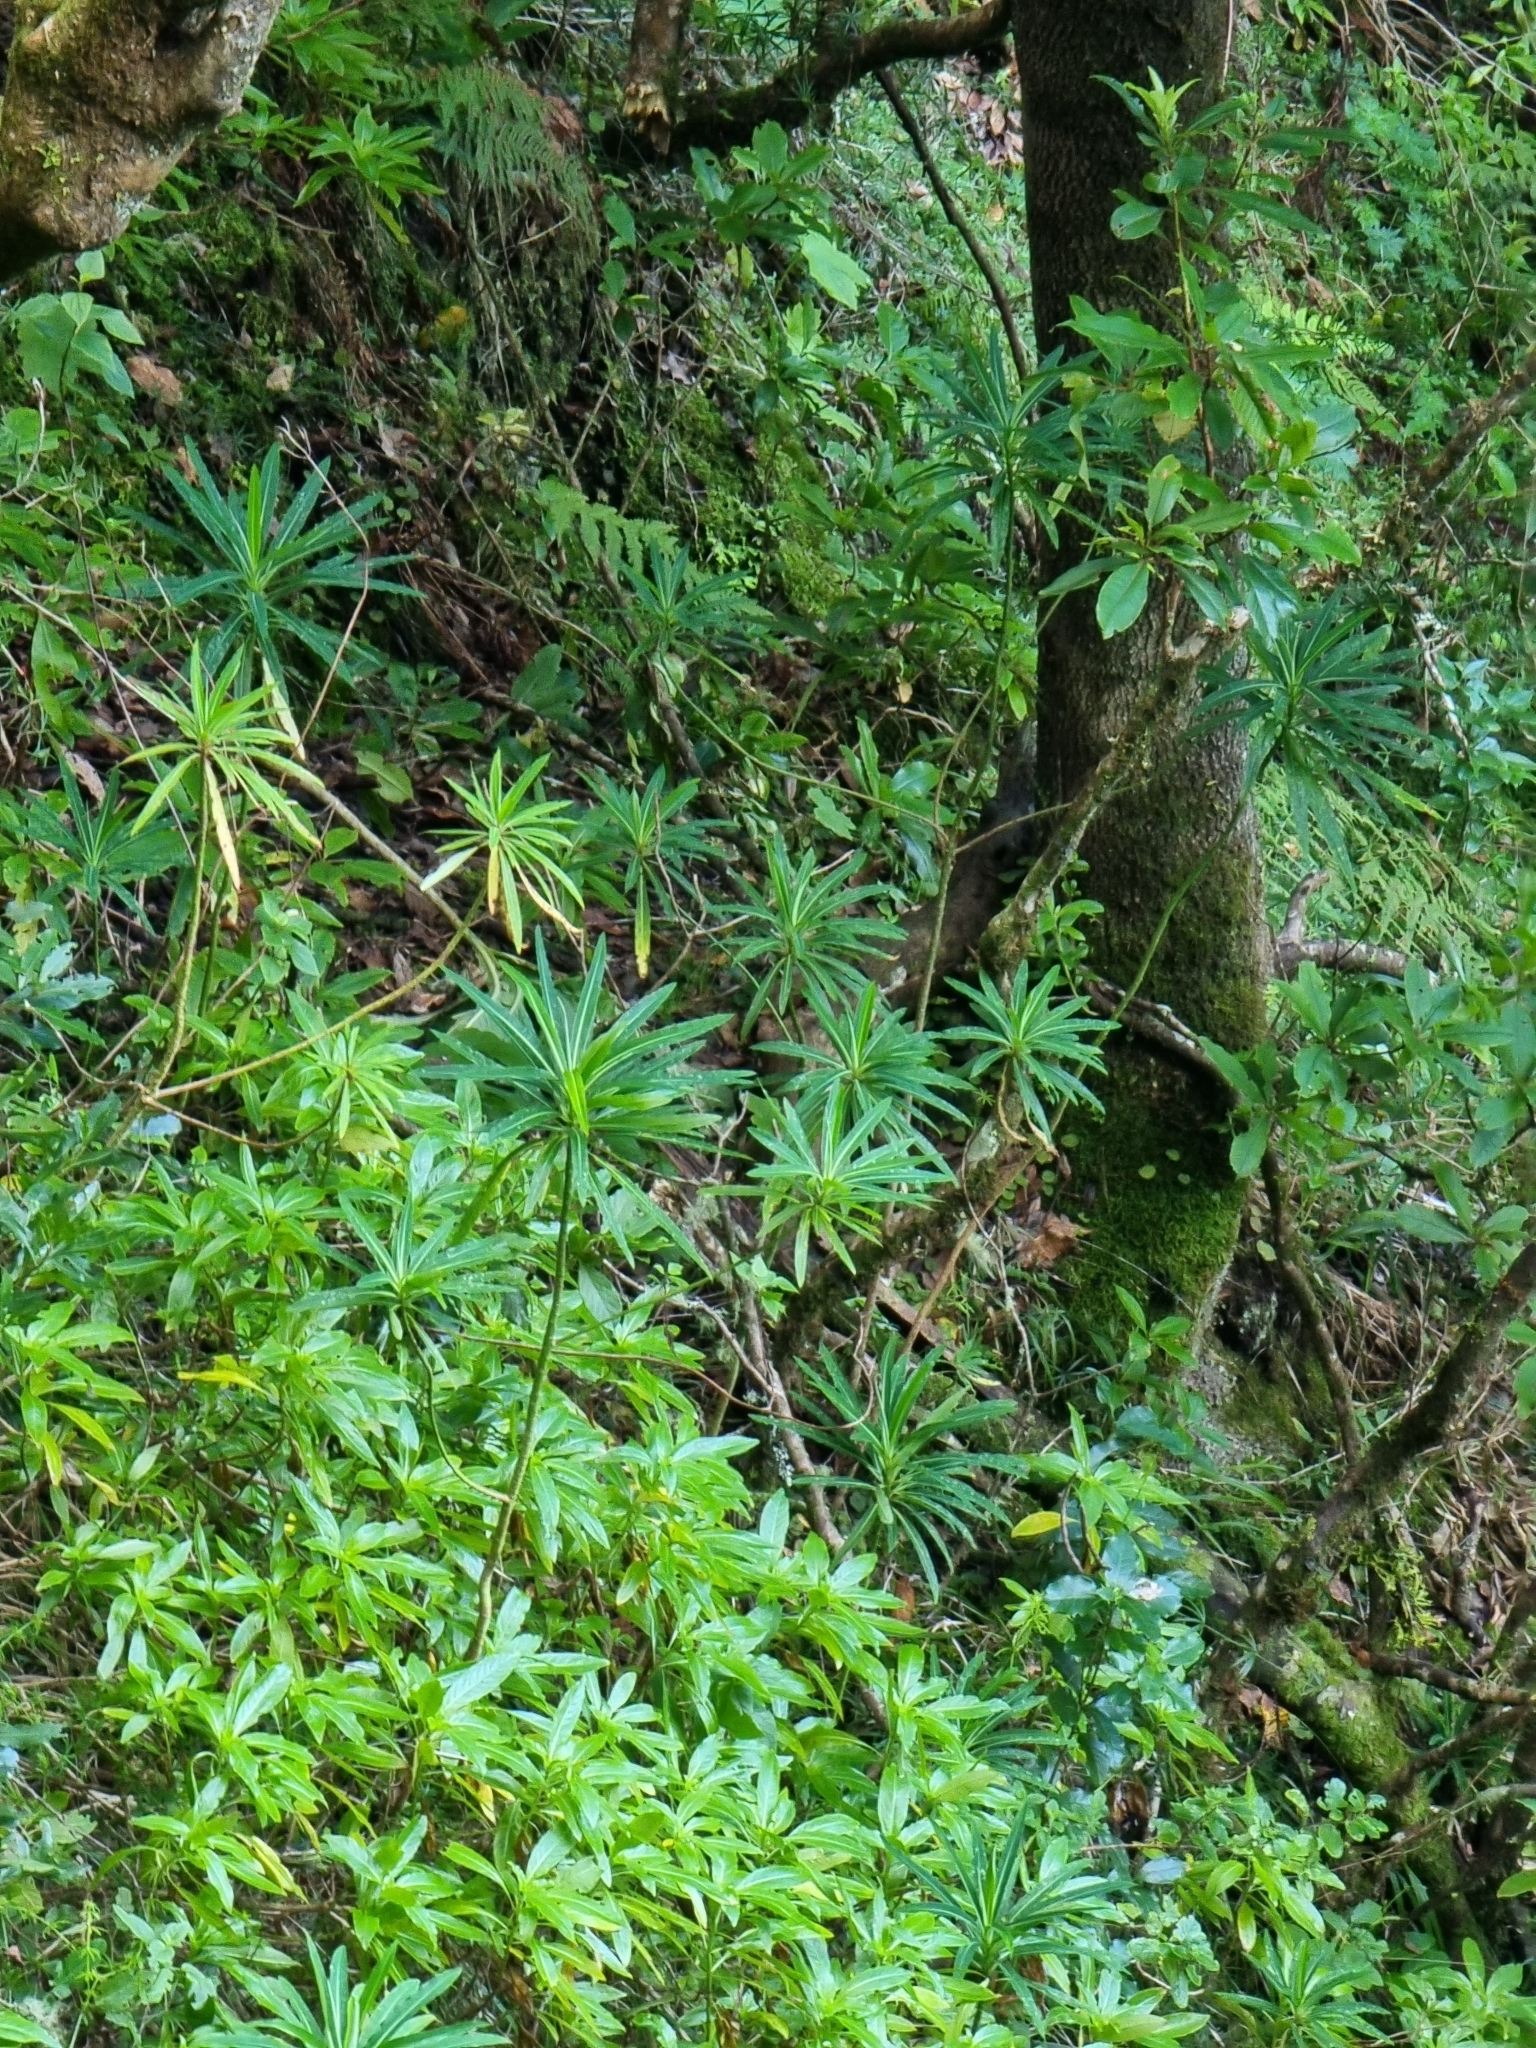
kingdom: Plantae
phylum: Tracheophyta
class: Magnoliopsida
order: Malpighiales
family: Euphorbiaceae
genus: Euphorbia
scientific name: Euphorbia mellifera
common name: Canary spurge
